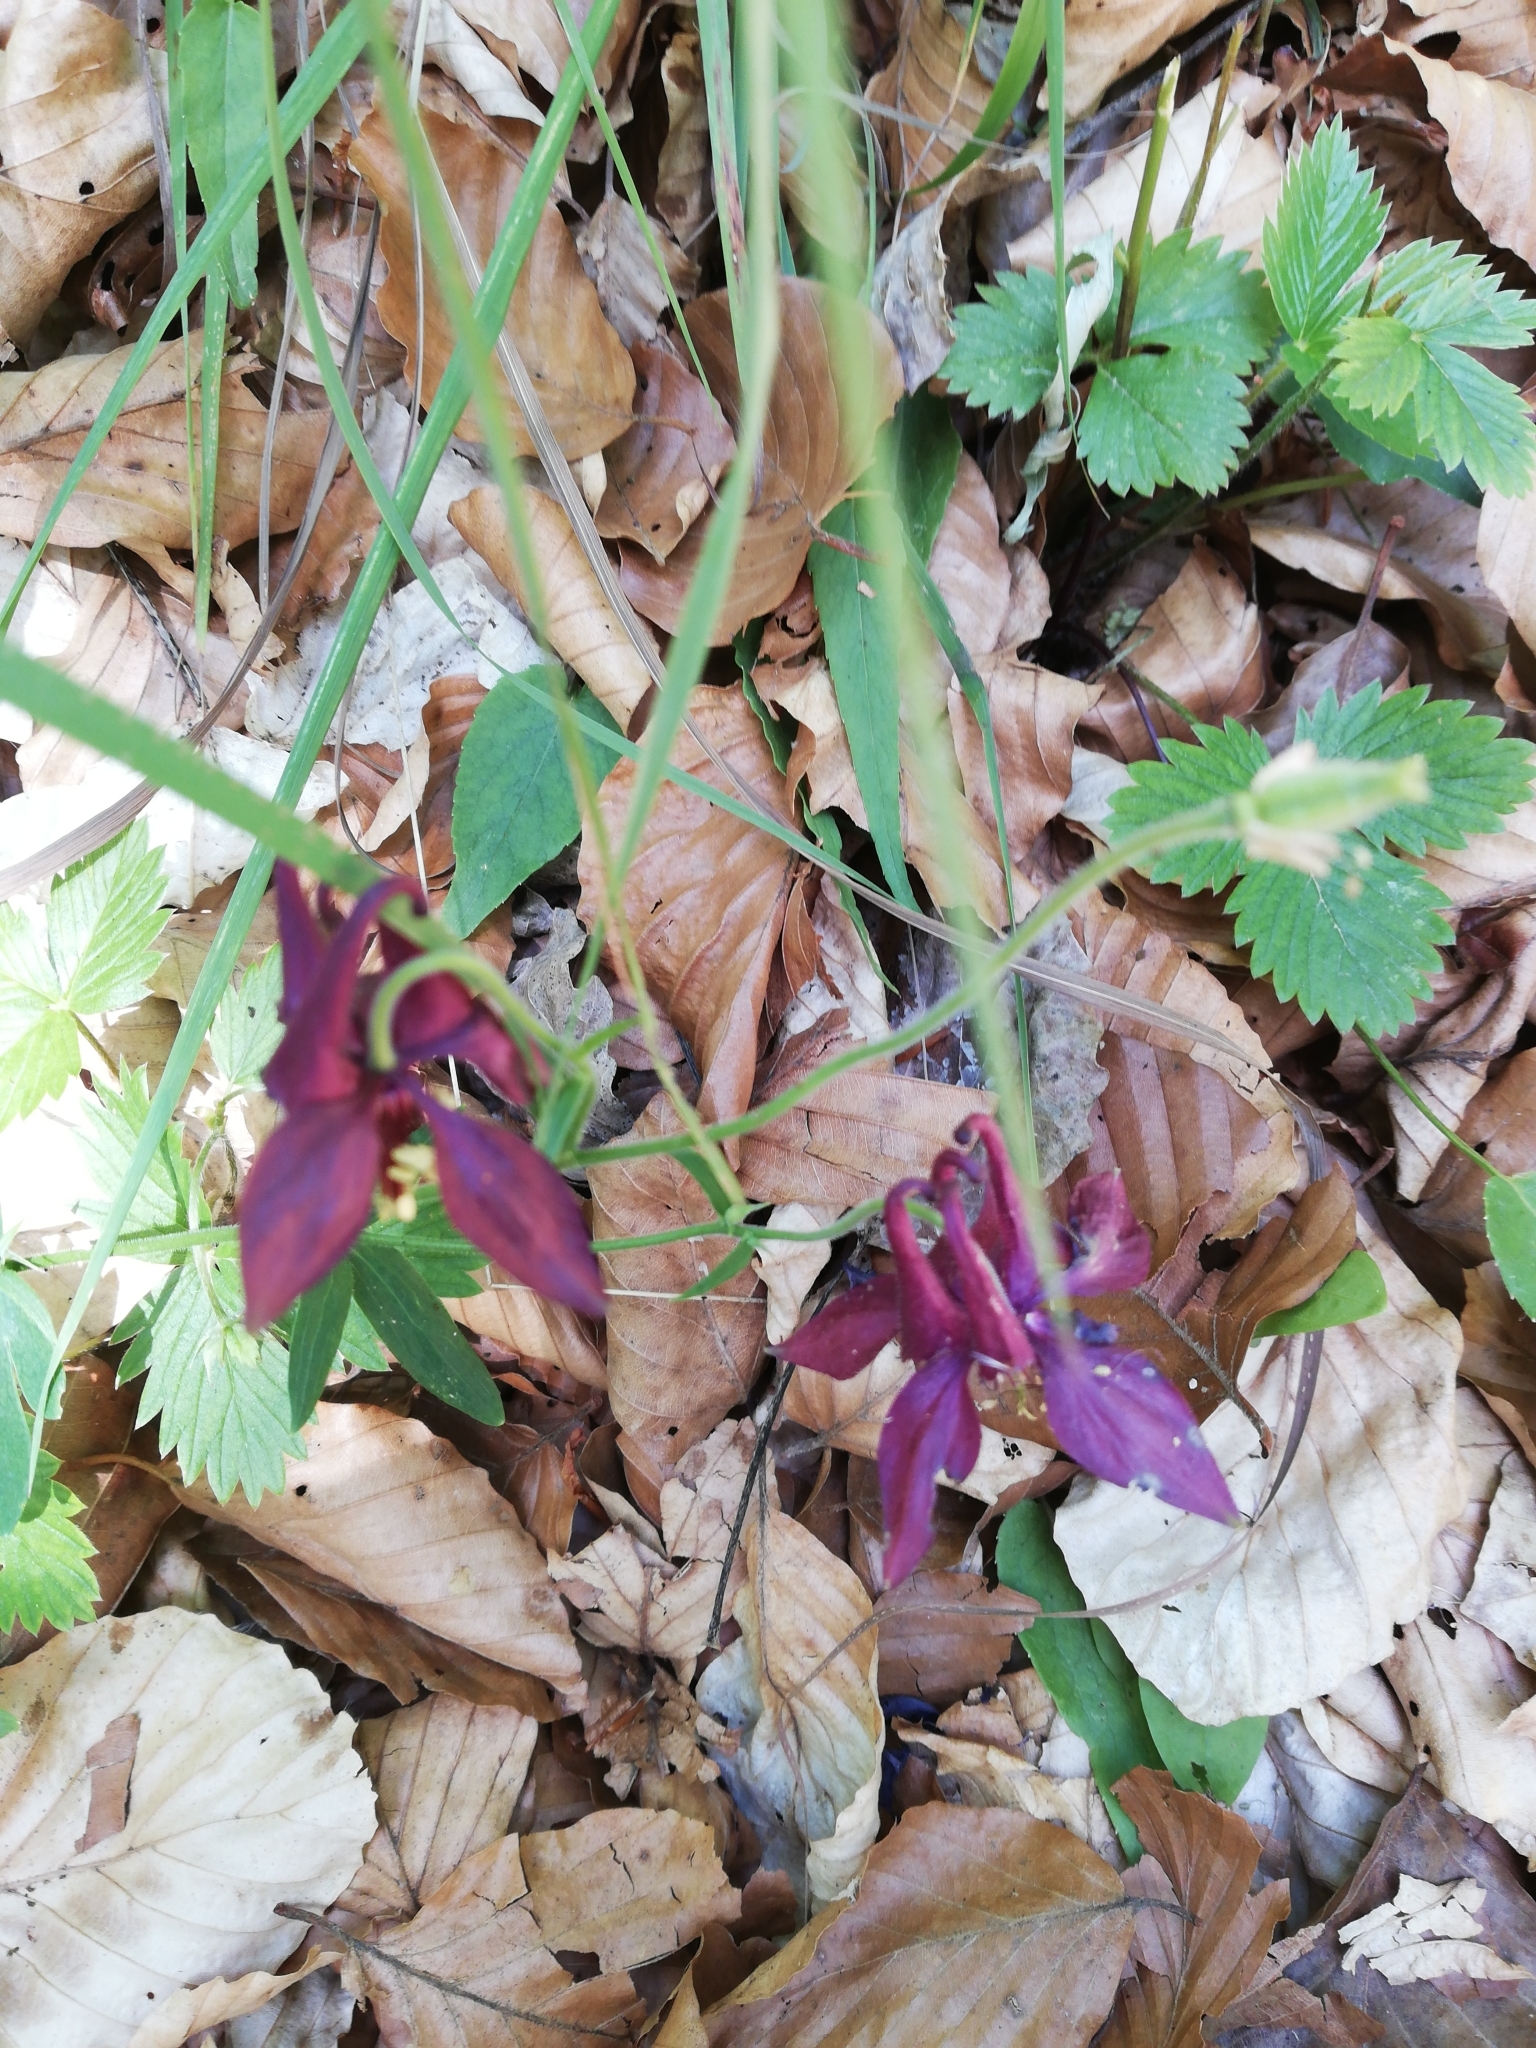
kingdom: Plantae
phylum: Tracheophyta
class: Magnoliopsida
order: Ranunculales
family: Ranunculaceae
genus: Aquilegia
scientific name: Aquilegia atrata
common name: Dark columbine
